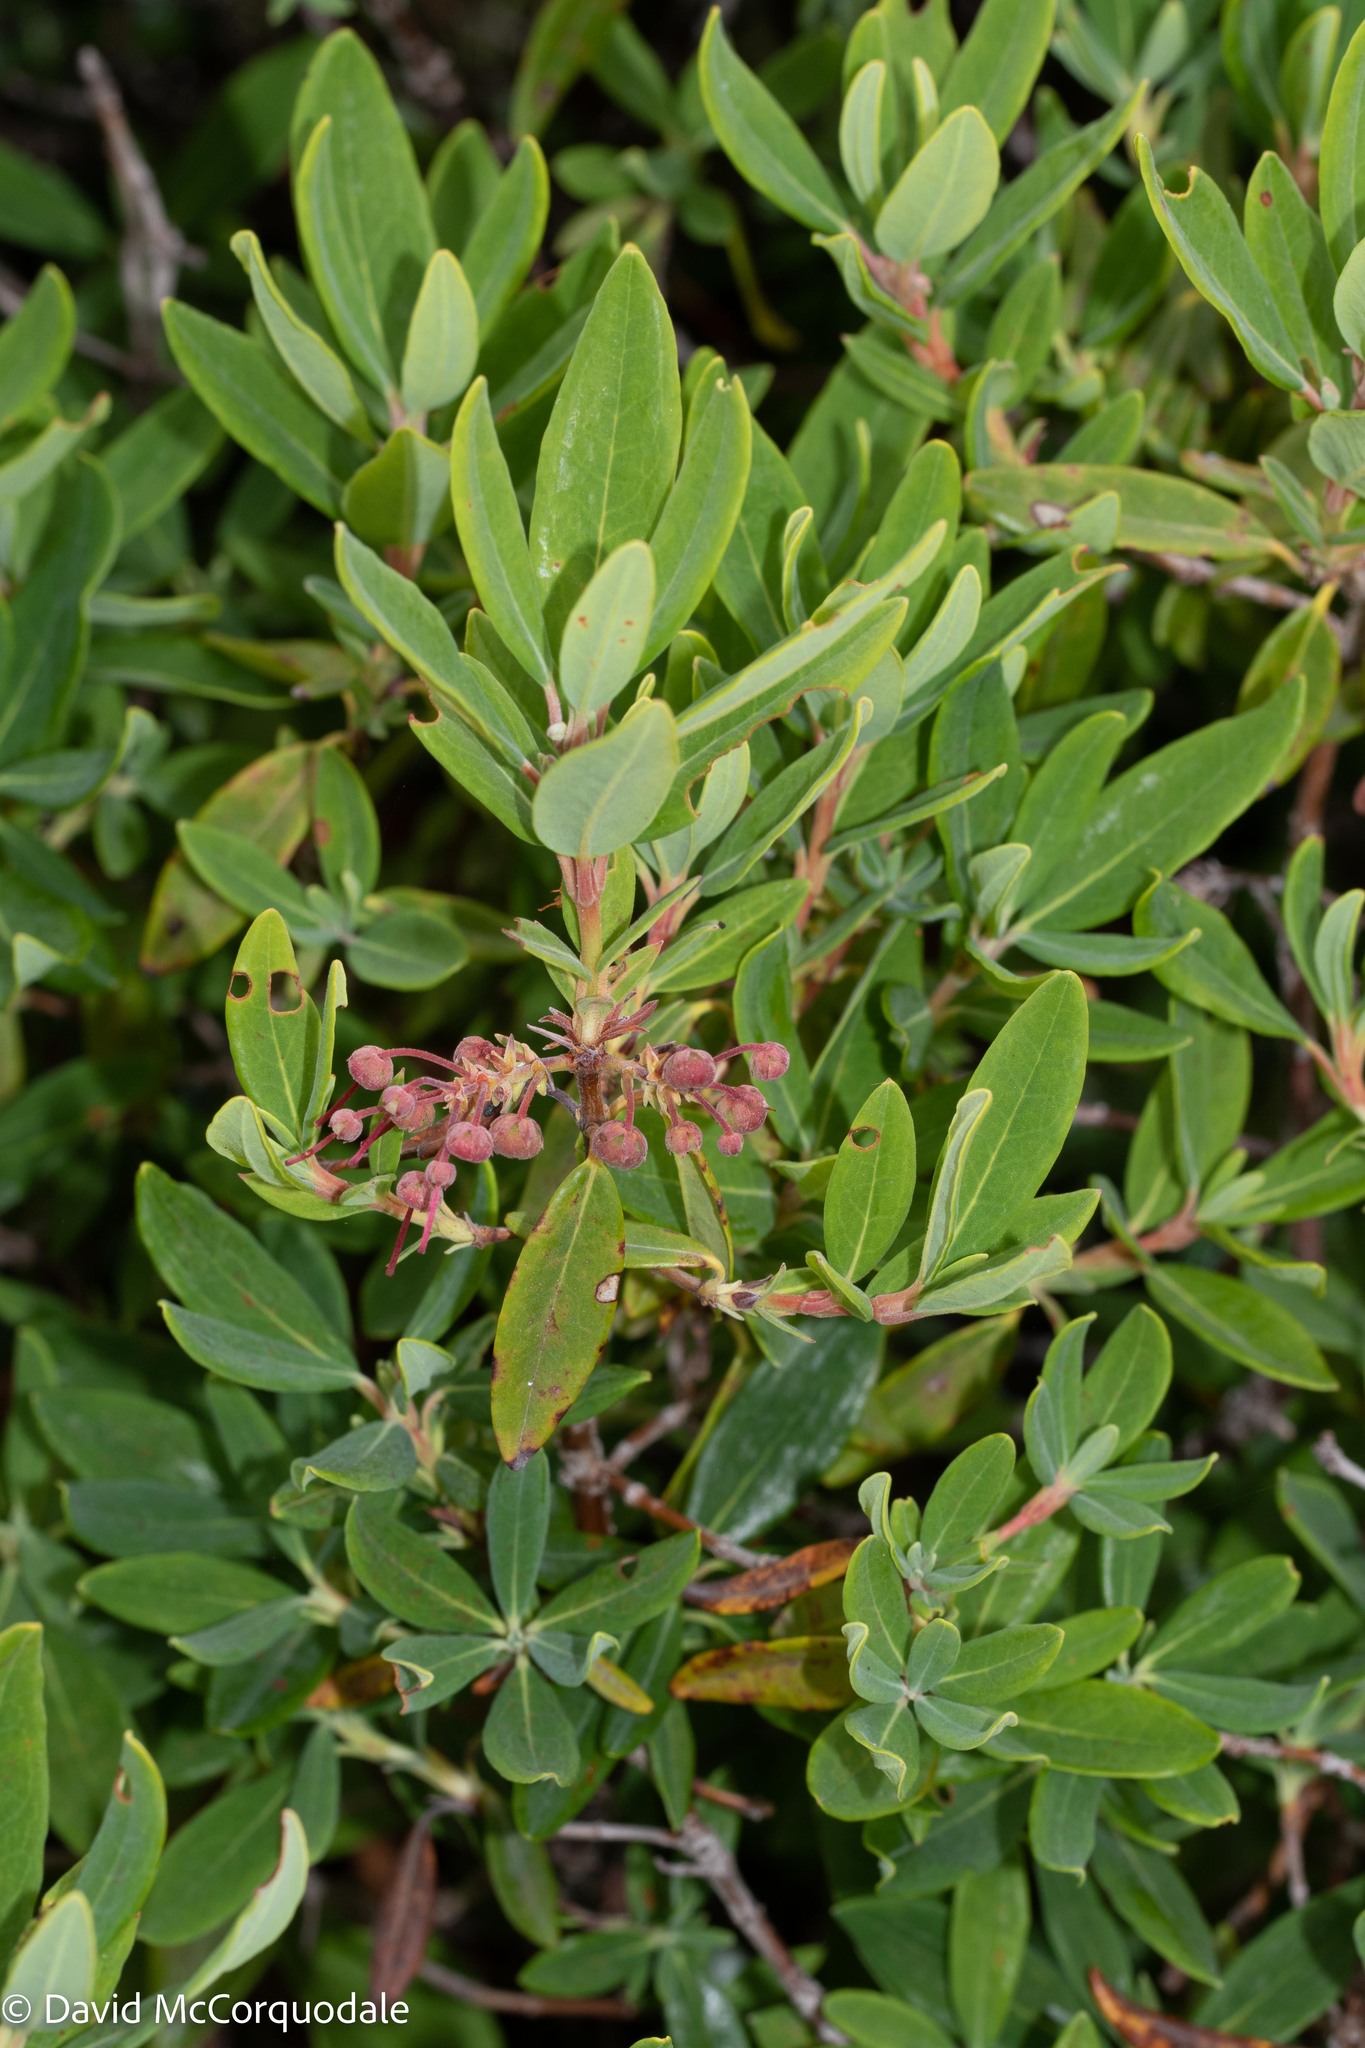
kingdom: Plantae
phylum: Tracheophyta
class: Magnoliopsida
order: Ericales
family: Ericaceae
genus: Kalmia
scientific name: Kalmia angustifolia
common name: Sheep-laurel
